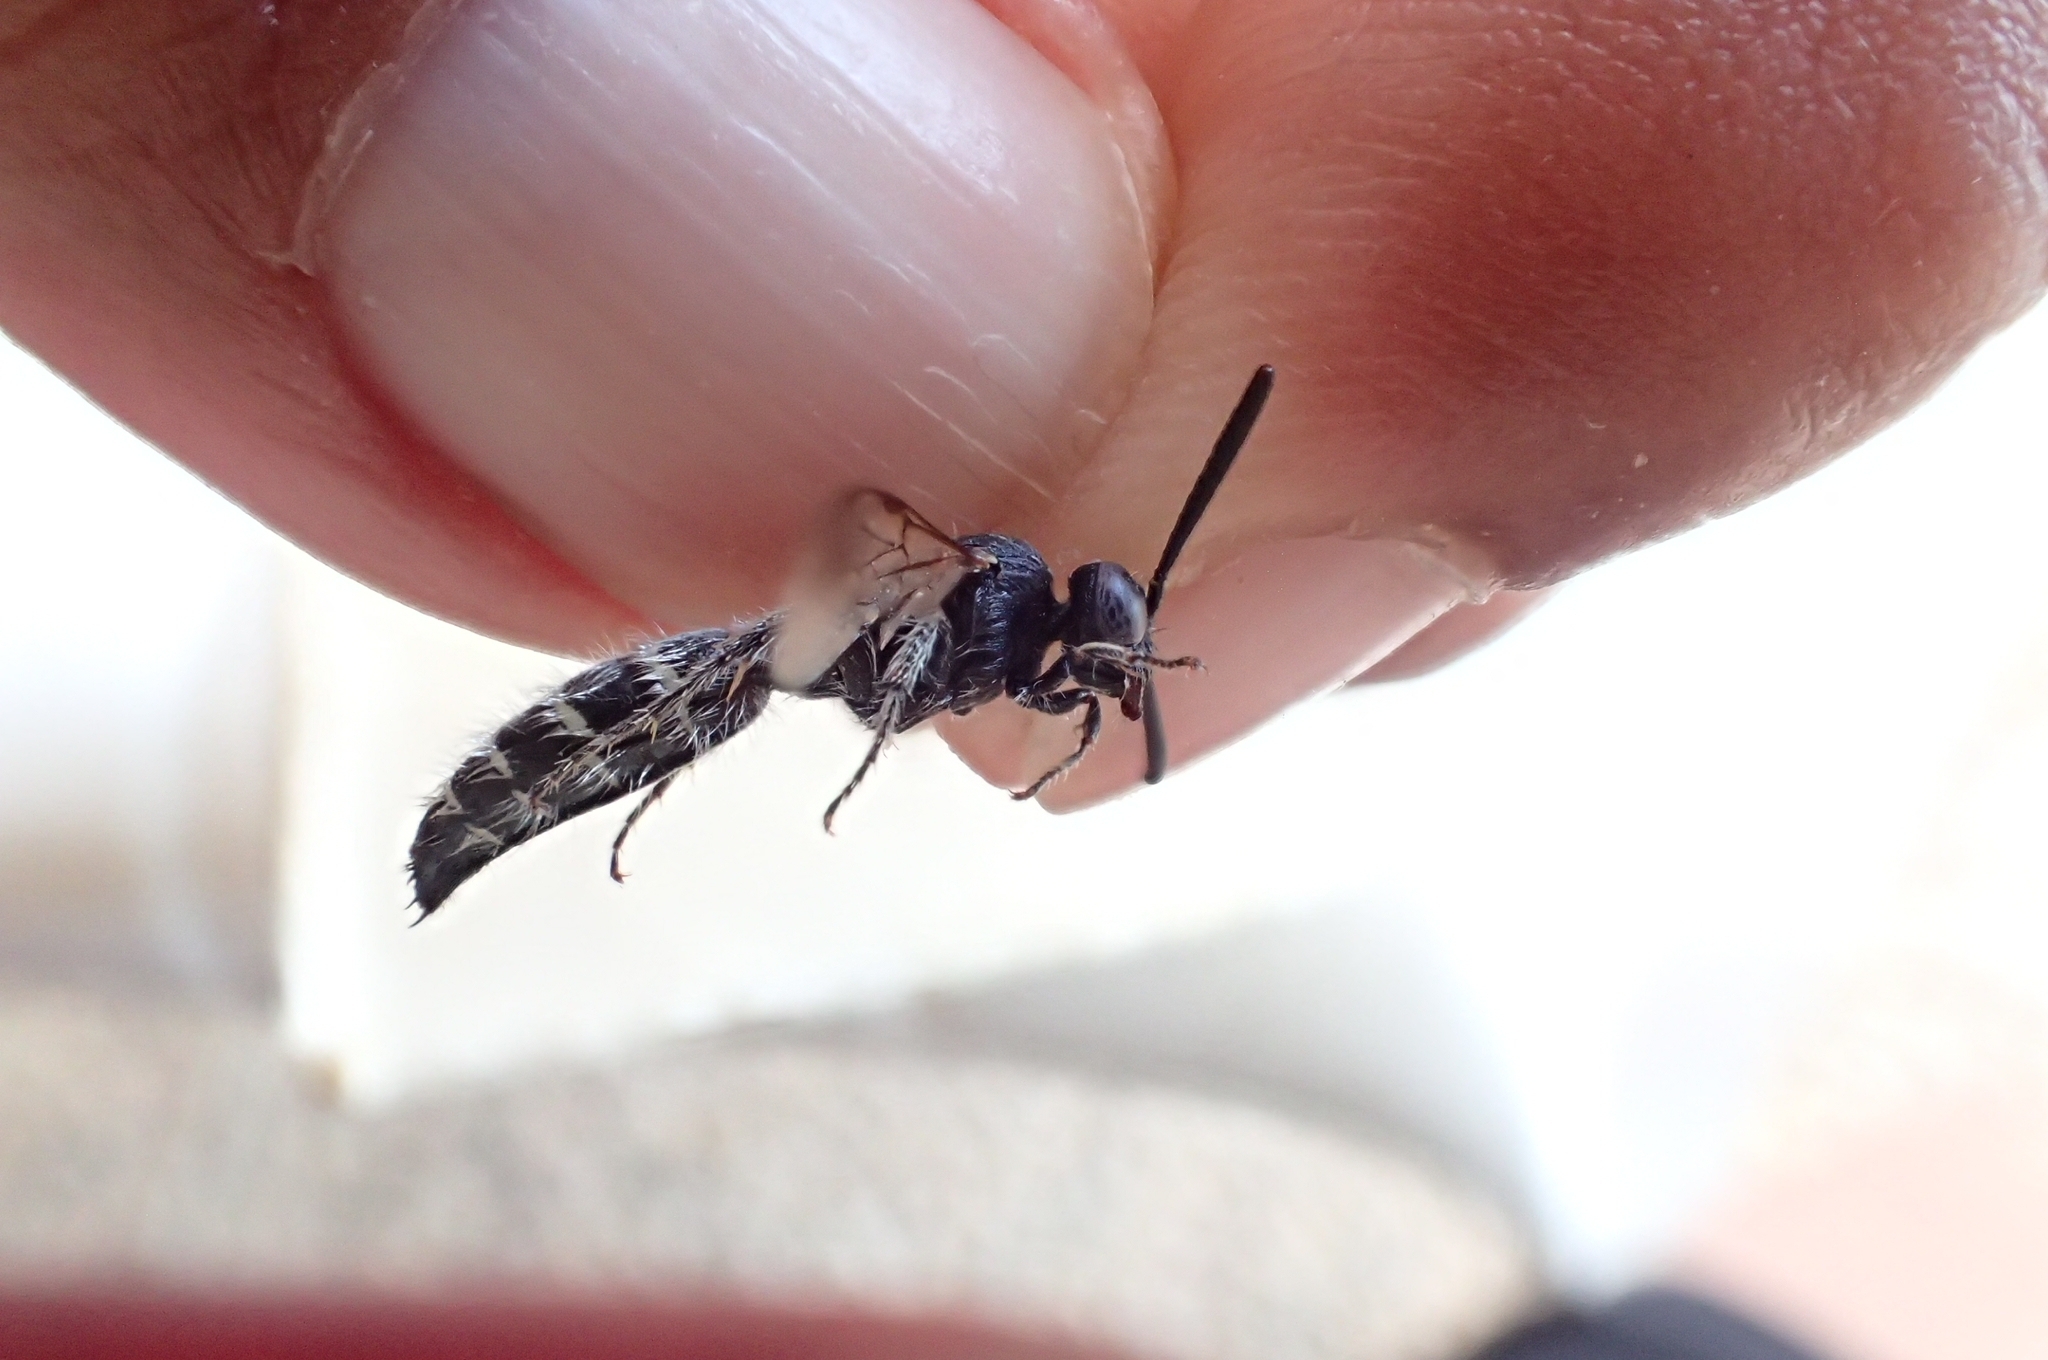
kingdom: Animalia
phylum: Arthropoda
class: Insecta
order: Hymenoptera
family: Scoliidae
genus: Colpa
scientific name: Colpa quinquecincta
